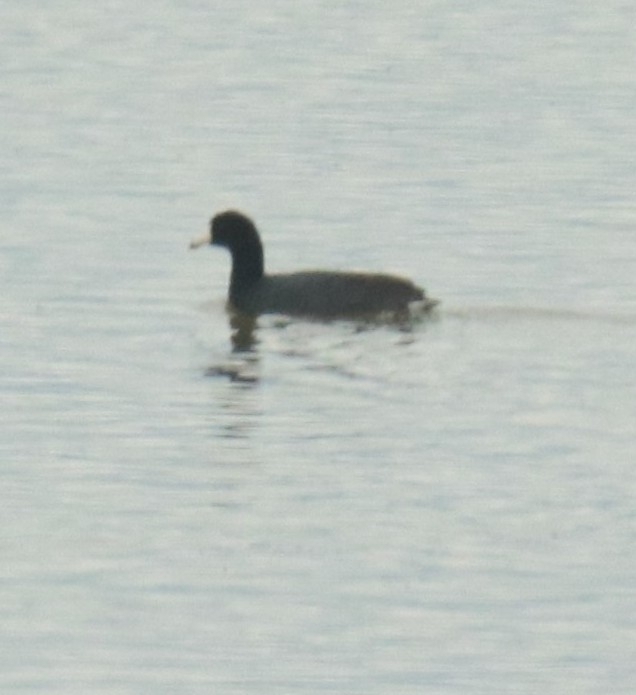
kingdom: Animalia
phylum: Chordata
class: Aves
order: Gruiformes
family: Rallidae
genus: Fulica
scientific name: Fulica americana
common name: American coot
